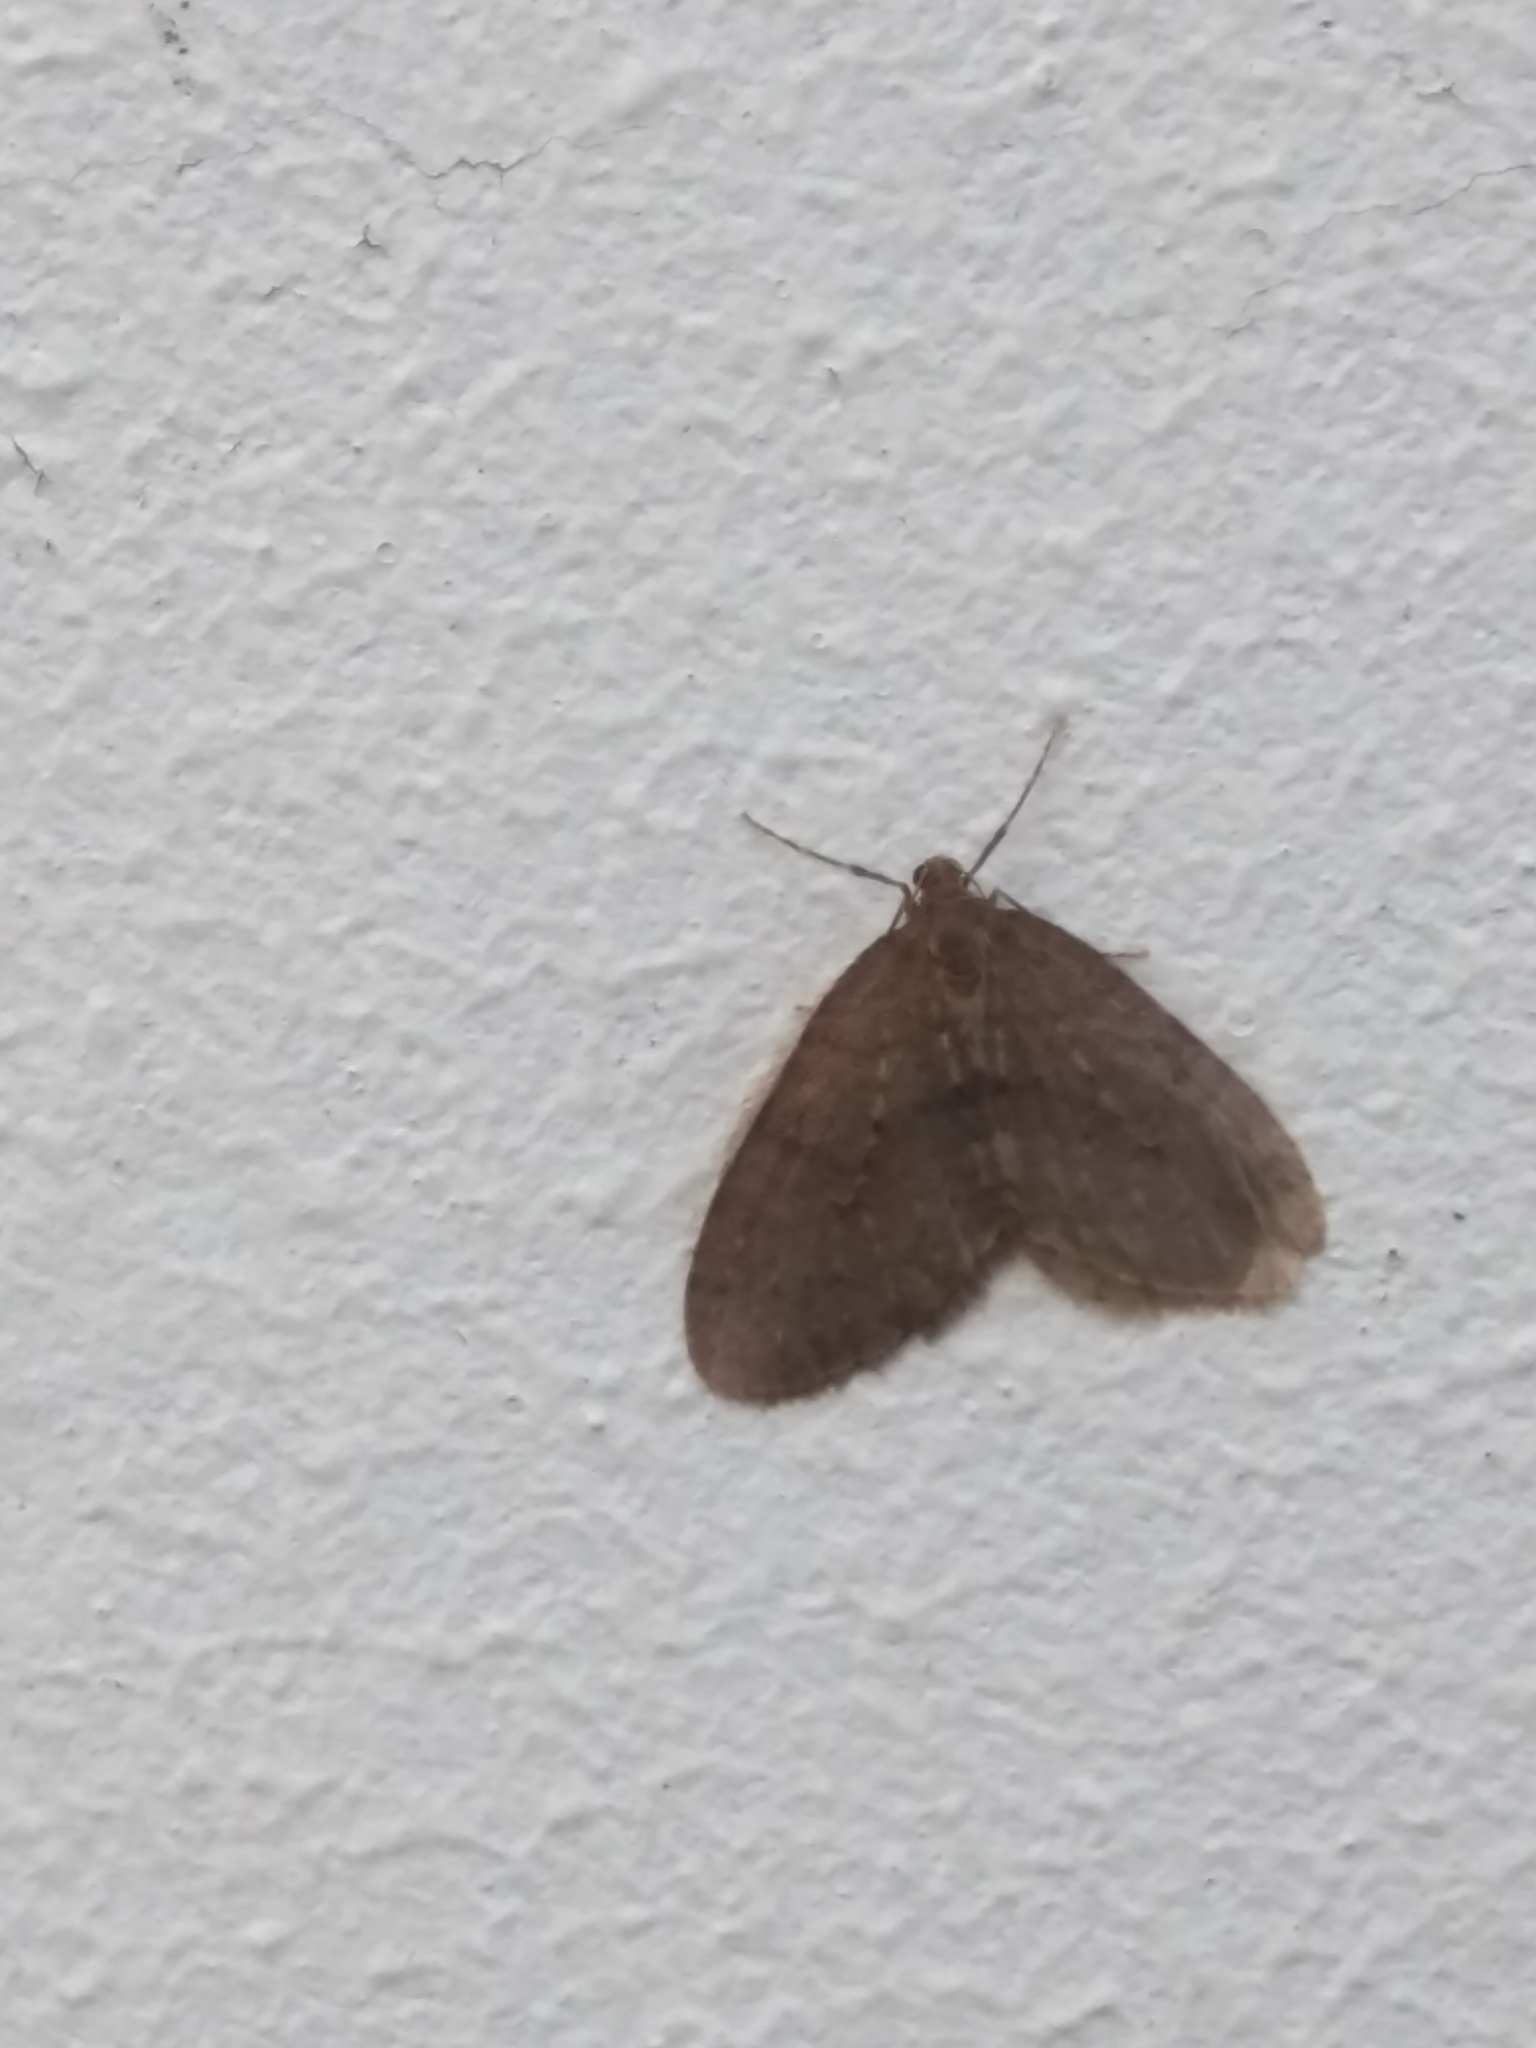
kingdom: Animalia
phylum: Arthropoda
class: Insecta
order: Lepidoptera
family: Geometridae
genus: Operophtera
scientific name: Operophtera brumata
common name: Winter moth
